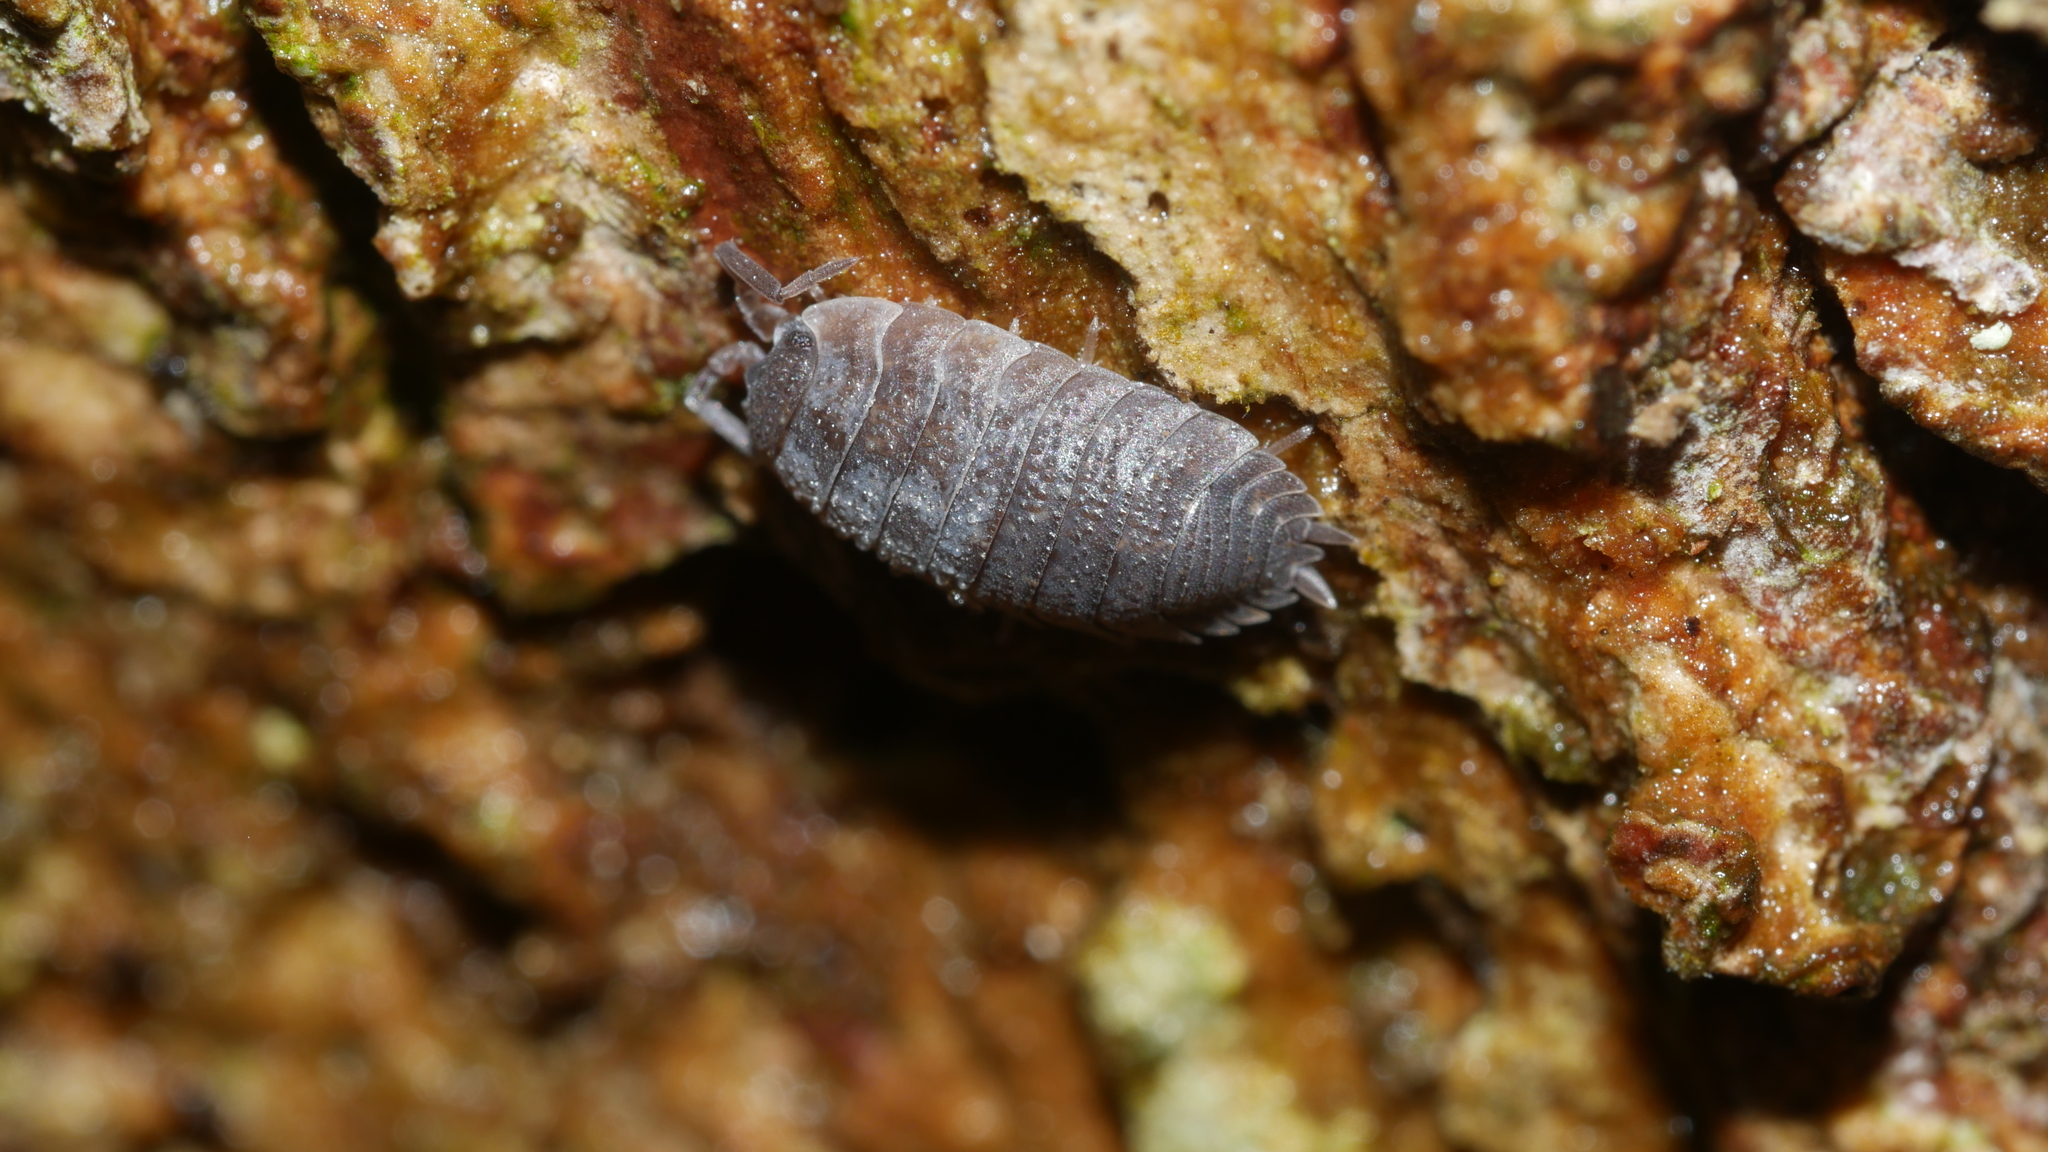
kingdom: Animalia
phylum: Arthropoda
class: Malacostraca
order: Isopoda
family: Porcellionidae
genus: Porcellio
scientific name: Porcellio scaber
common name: Common rough woodlouse
